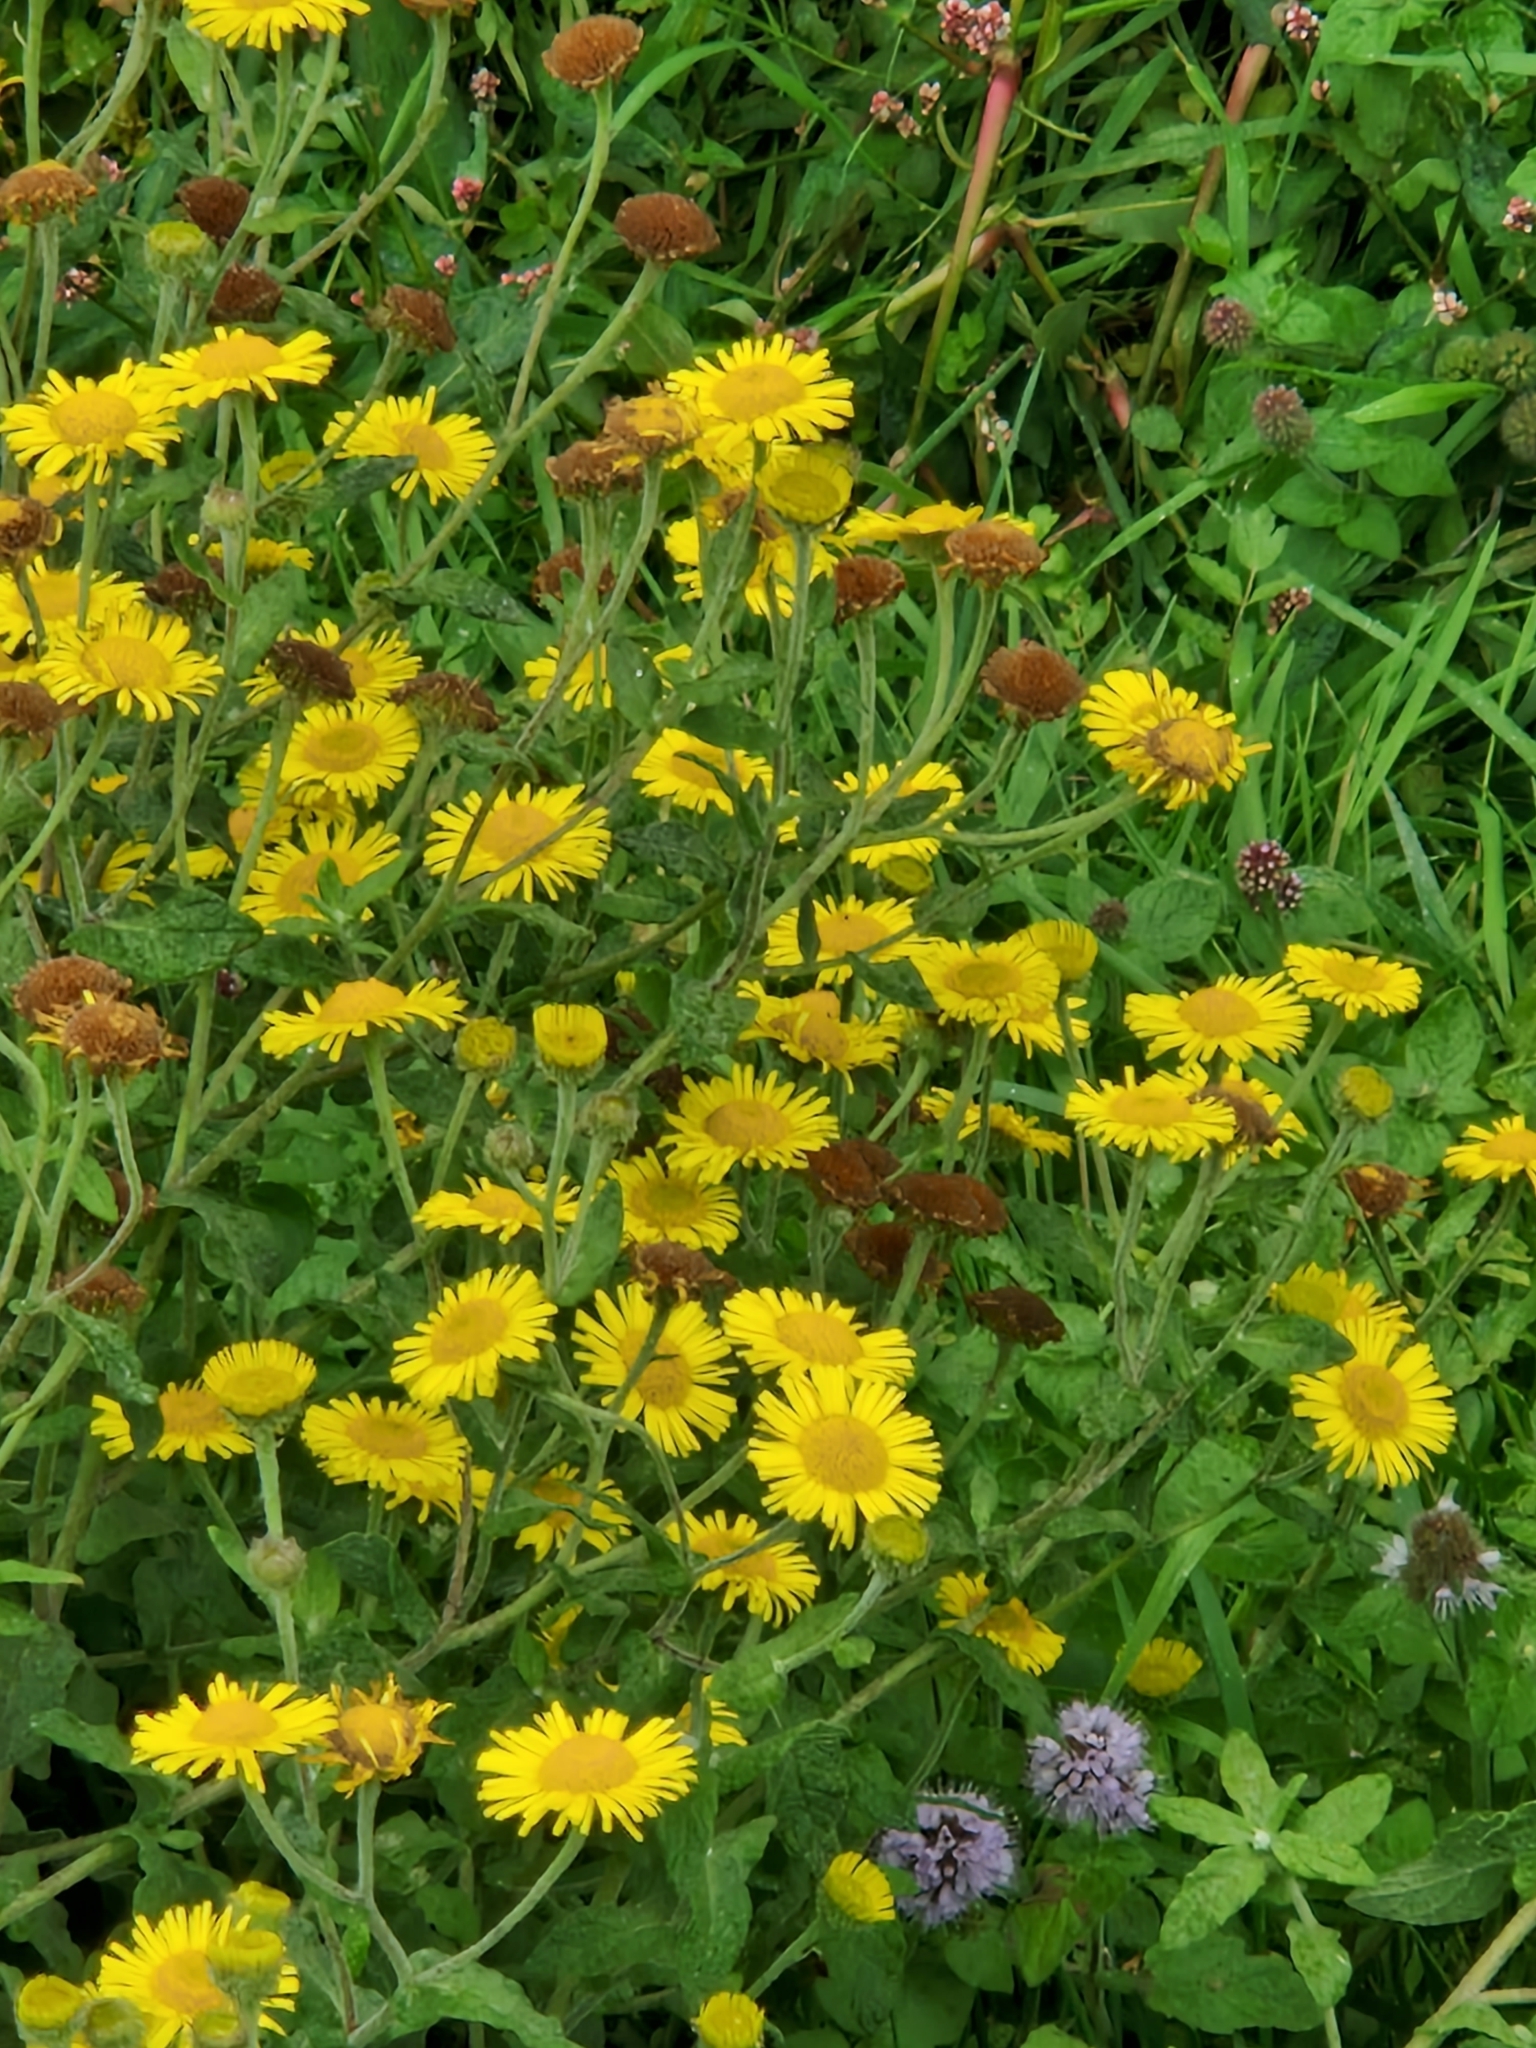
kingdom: Plantae
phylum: Tracheophyta
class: Magnoliopsida
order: Asterales
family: Asteraceae
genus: Pulicaria
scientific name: Pulicaria dysenterica
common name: Common fleabane
